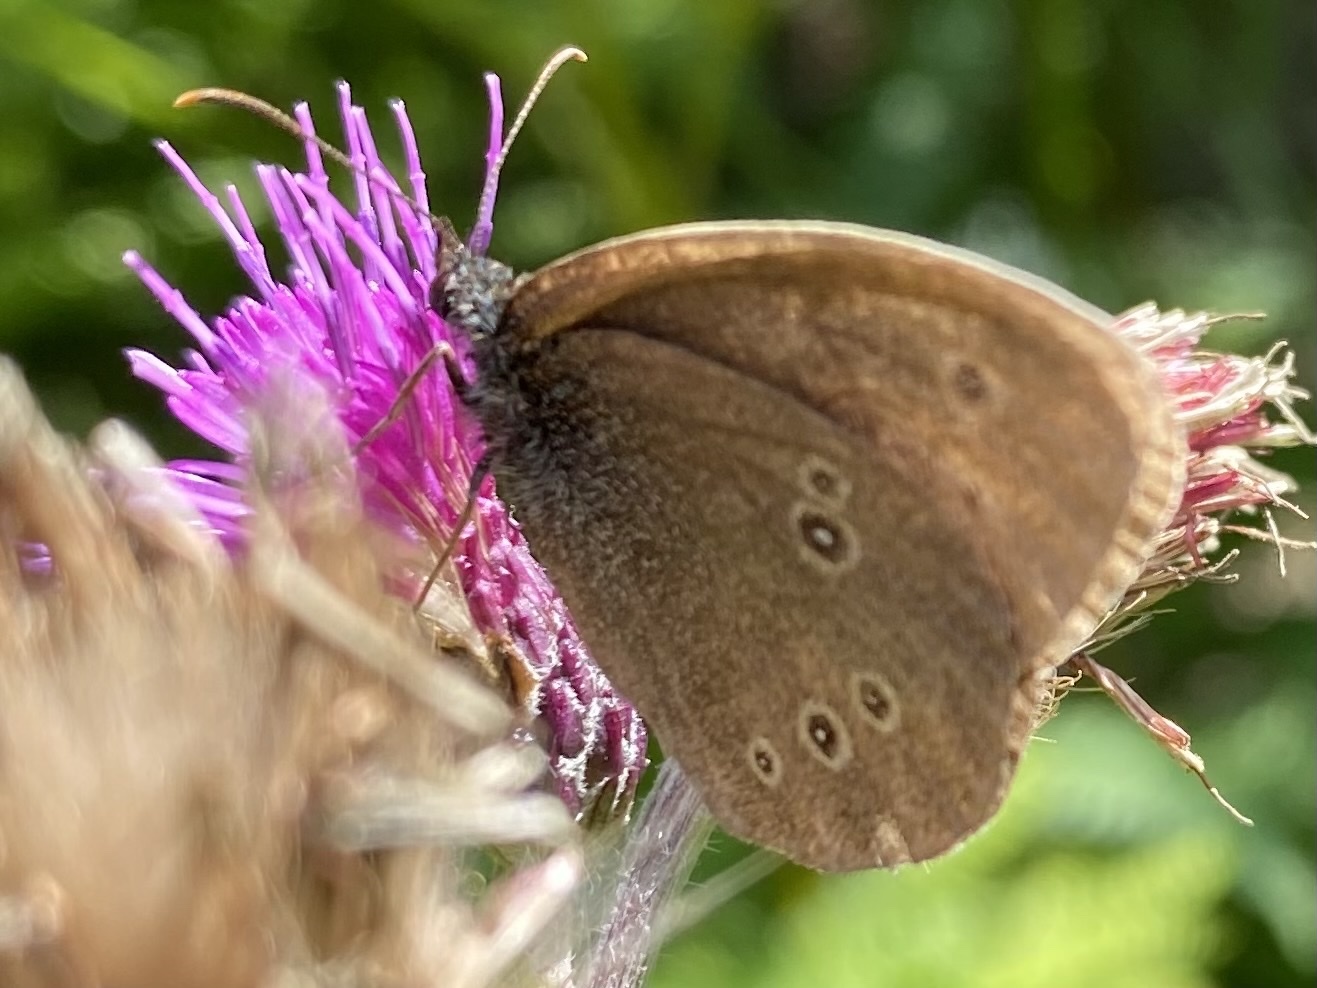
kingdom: Animalia
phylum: Arthropoda
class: Insecta
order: Lepidoptera
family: Nymphalidae
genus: Aphantopus
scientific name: Aphantopus hyperantus
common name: Ringlet
